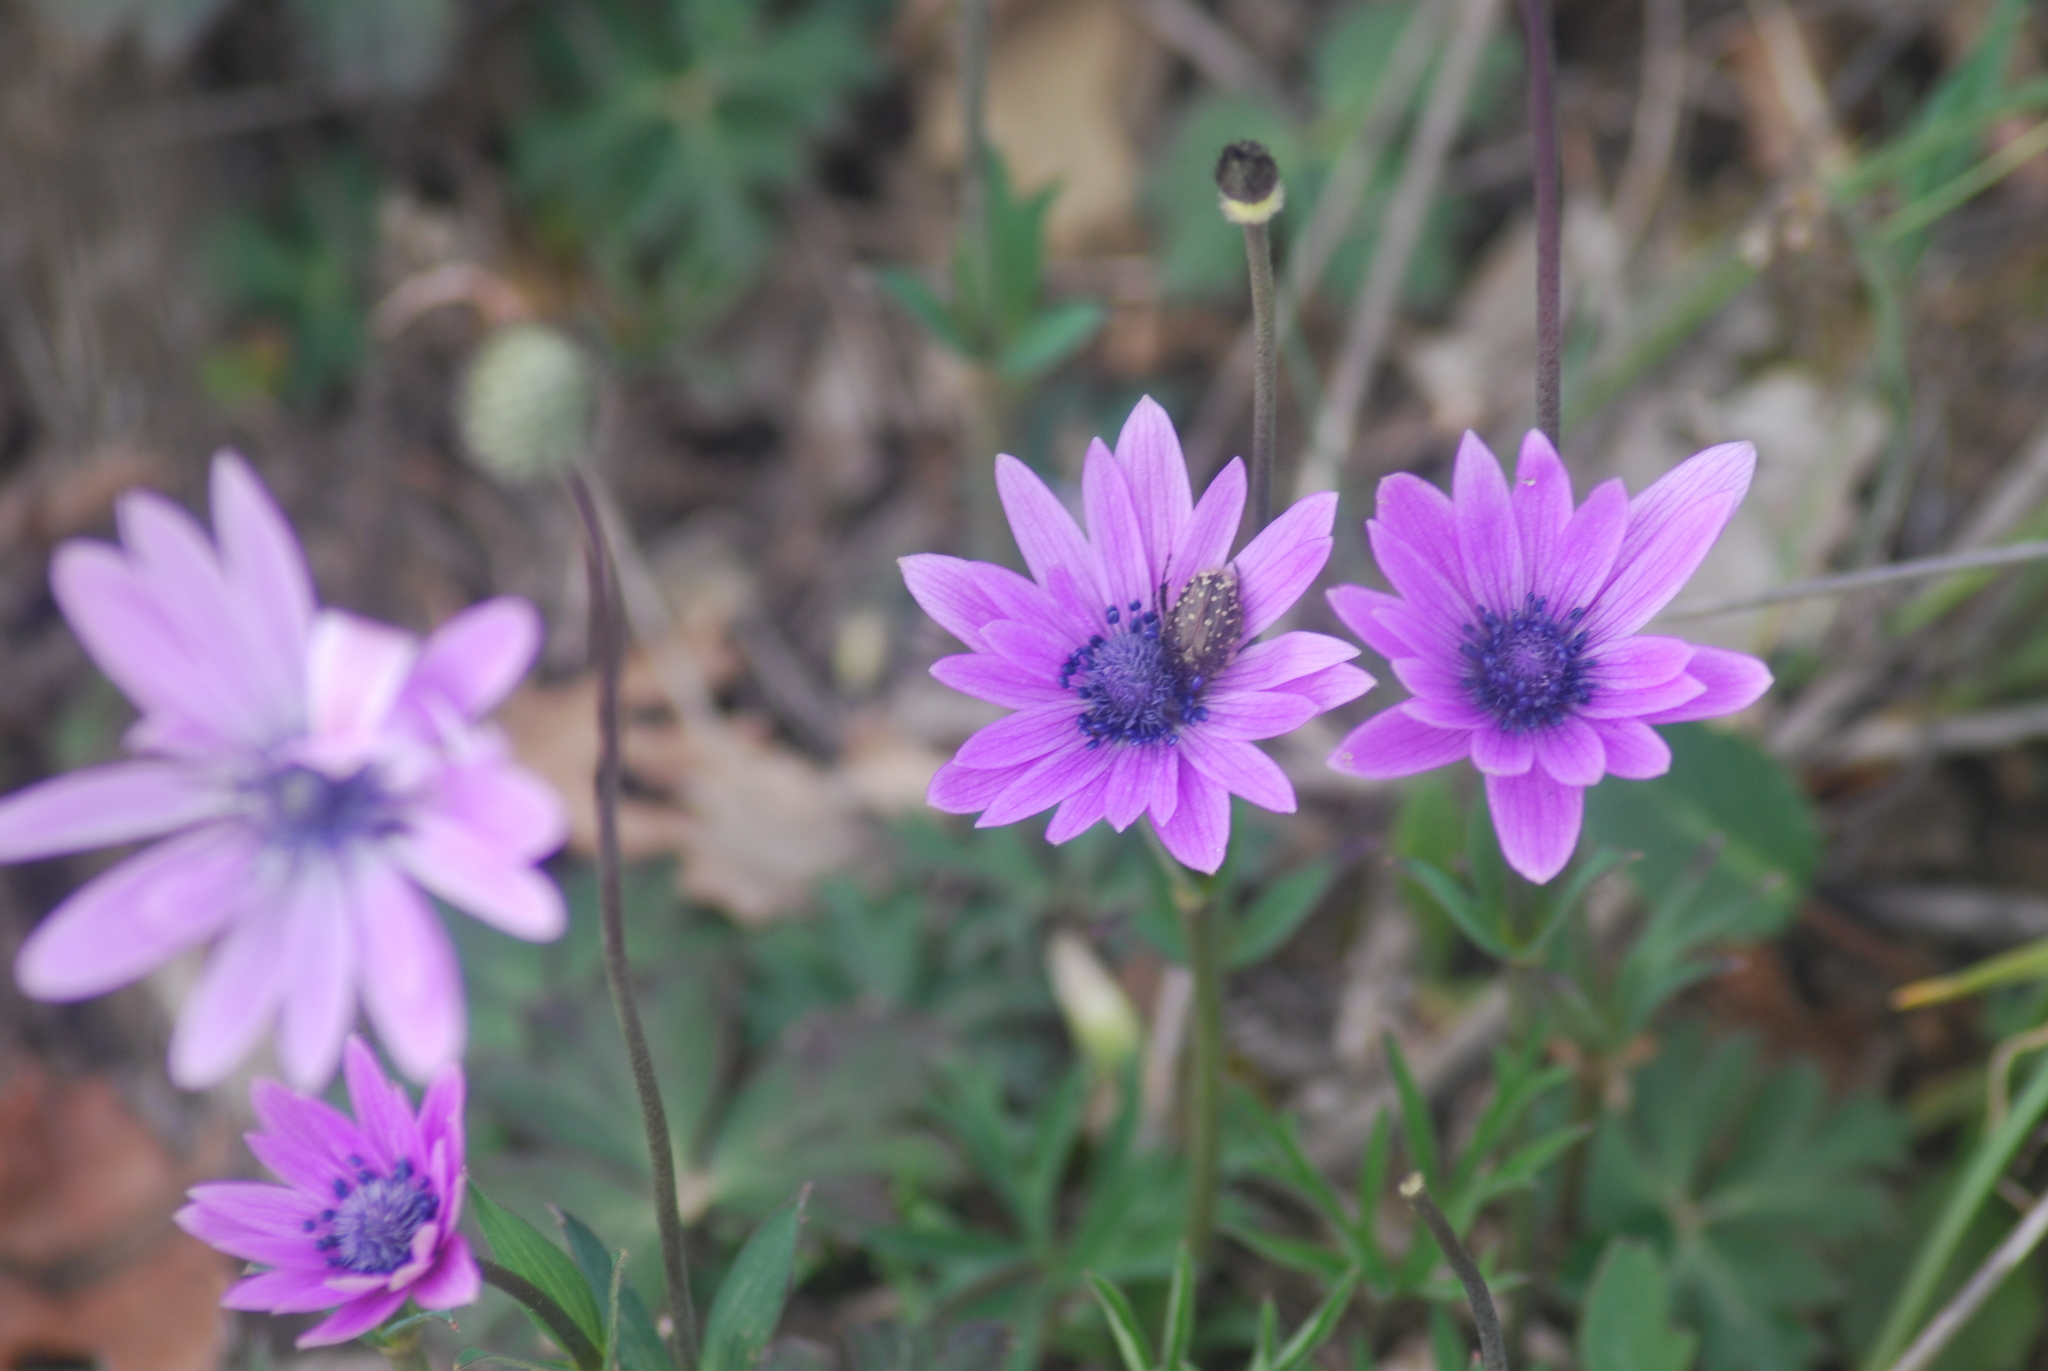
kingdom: Plantae
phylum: Tracheophyta
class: Magnoliopsida
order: Ranunculales
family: Ranunculaceae
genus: Anemone
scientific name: Anemone hortensis
